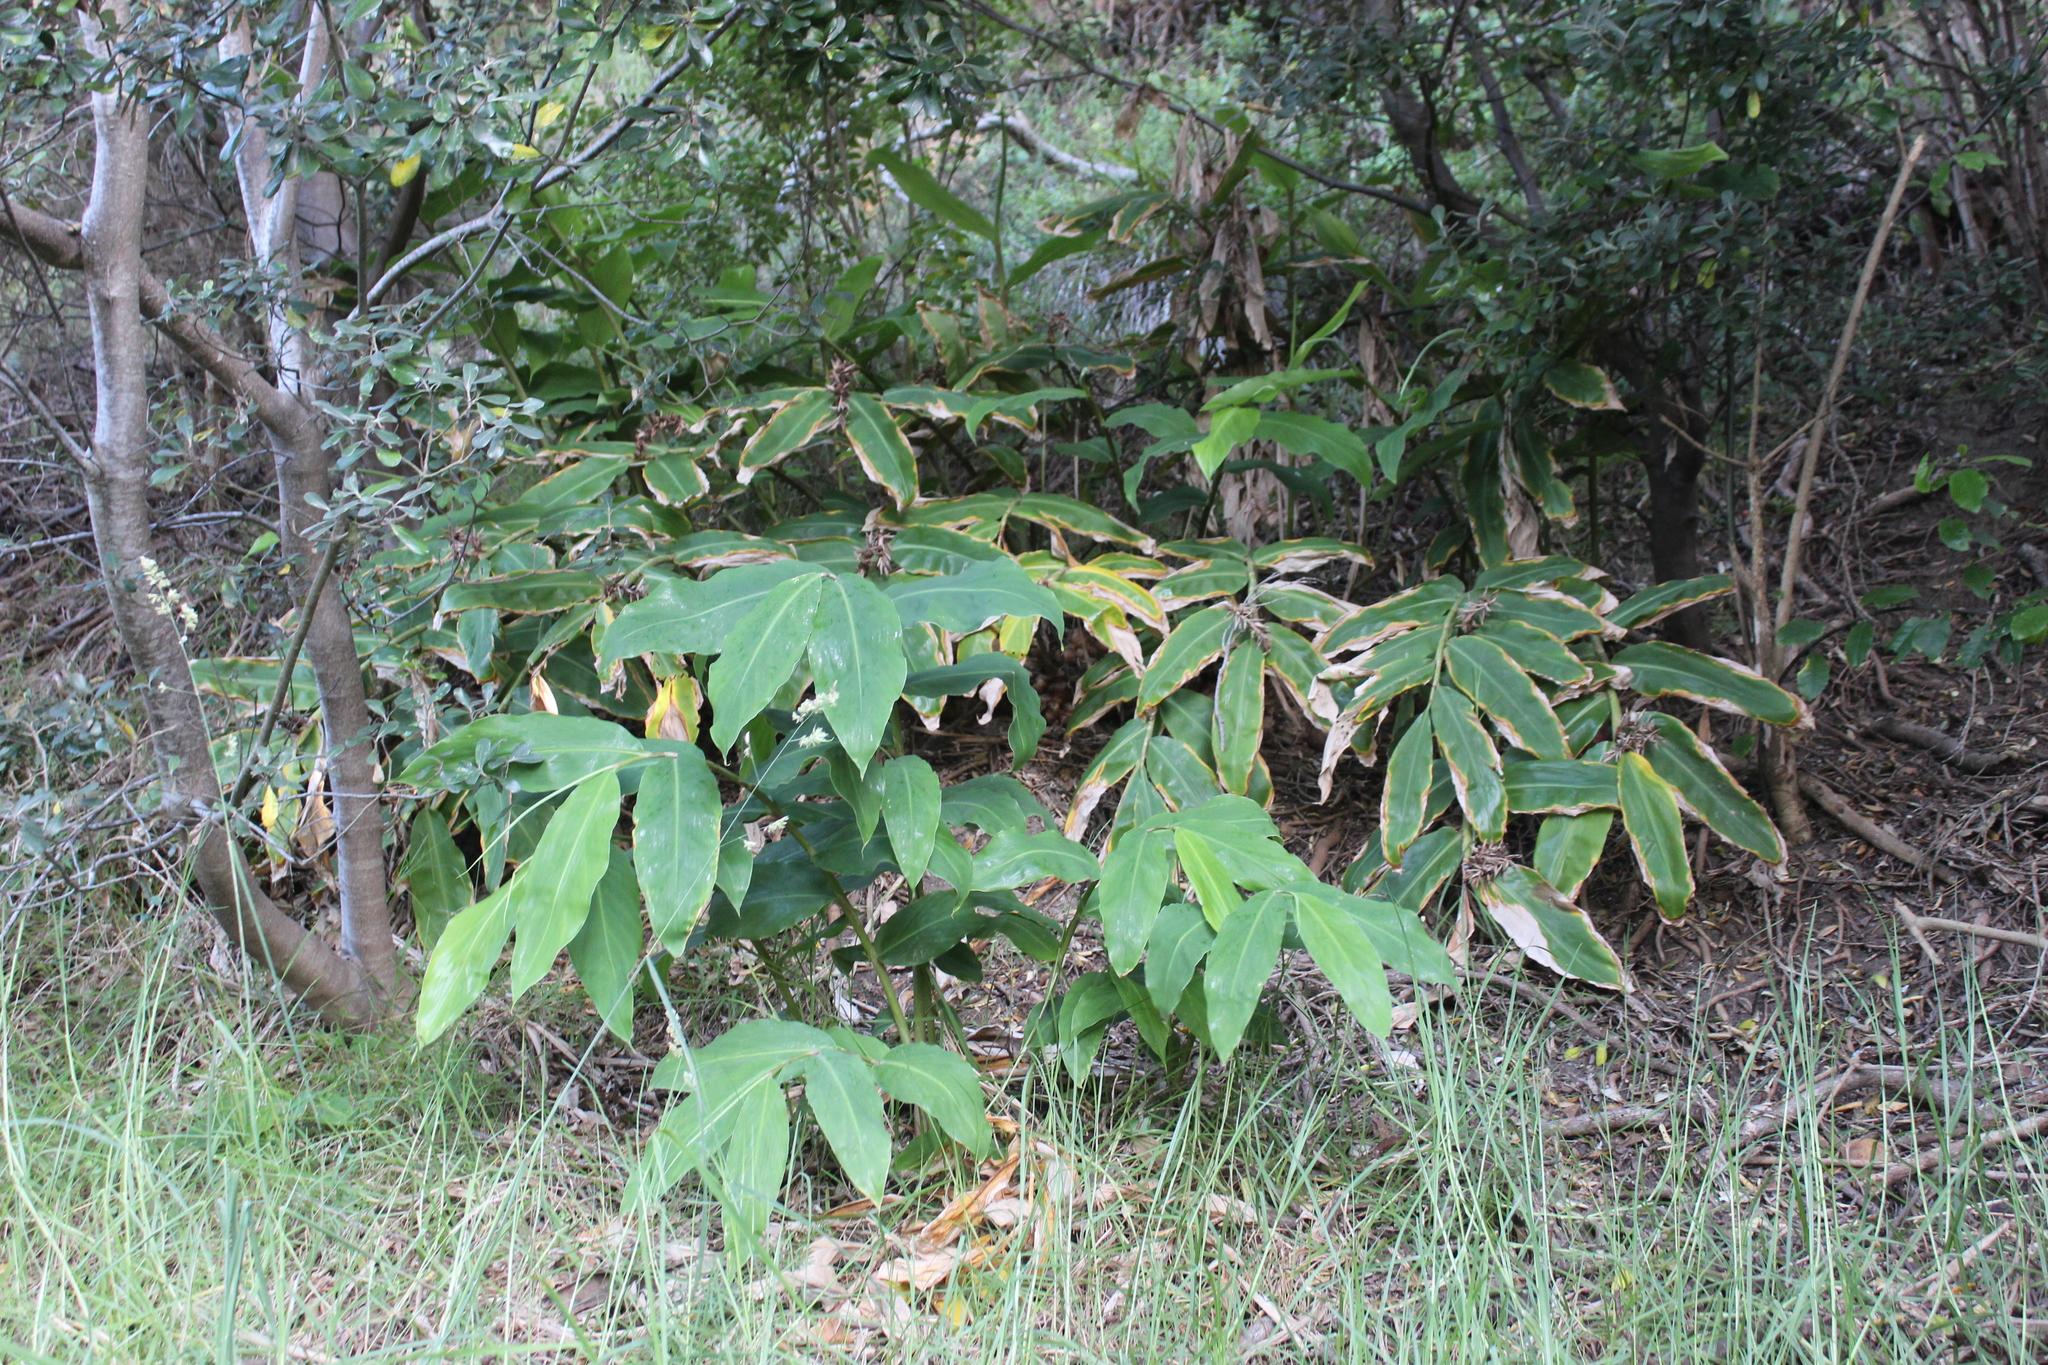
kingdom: Plantae
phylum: Tracheophyta
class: Liliopsida
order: Zingiberales
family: Zingiberaceae
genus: Hedychium
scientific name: Hedychium gardnerianum
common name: Himalayan ginger
